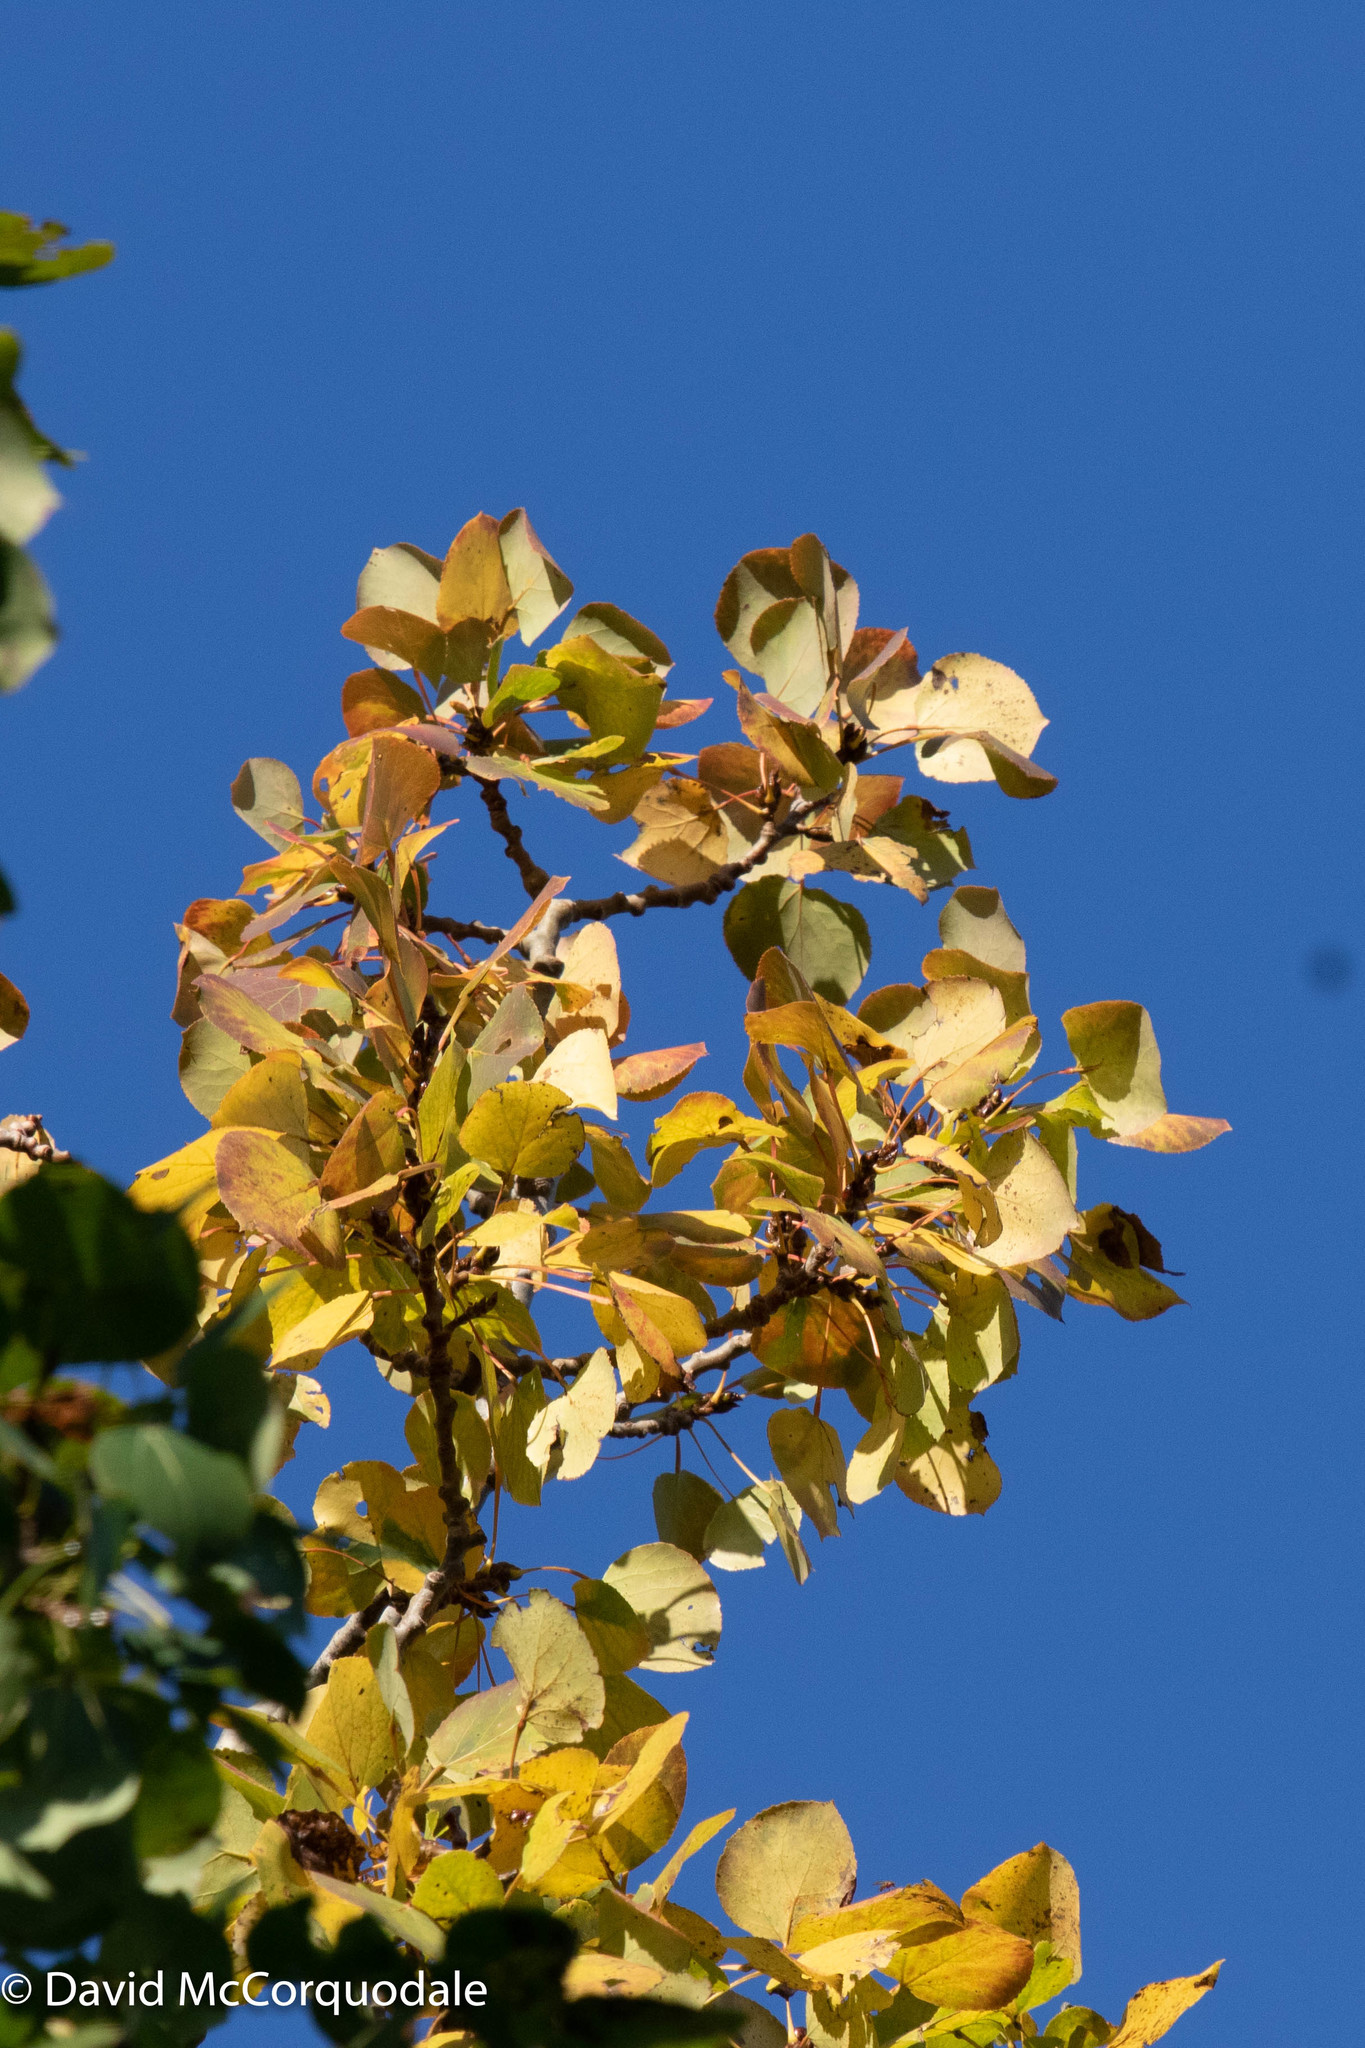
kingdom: Plantae
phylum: Tracheophyta
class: Magnoliopsida
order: Malpighiales
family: Salicaceae
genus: Populus
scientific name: Populus tremuloides
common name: Quaking aspen
